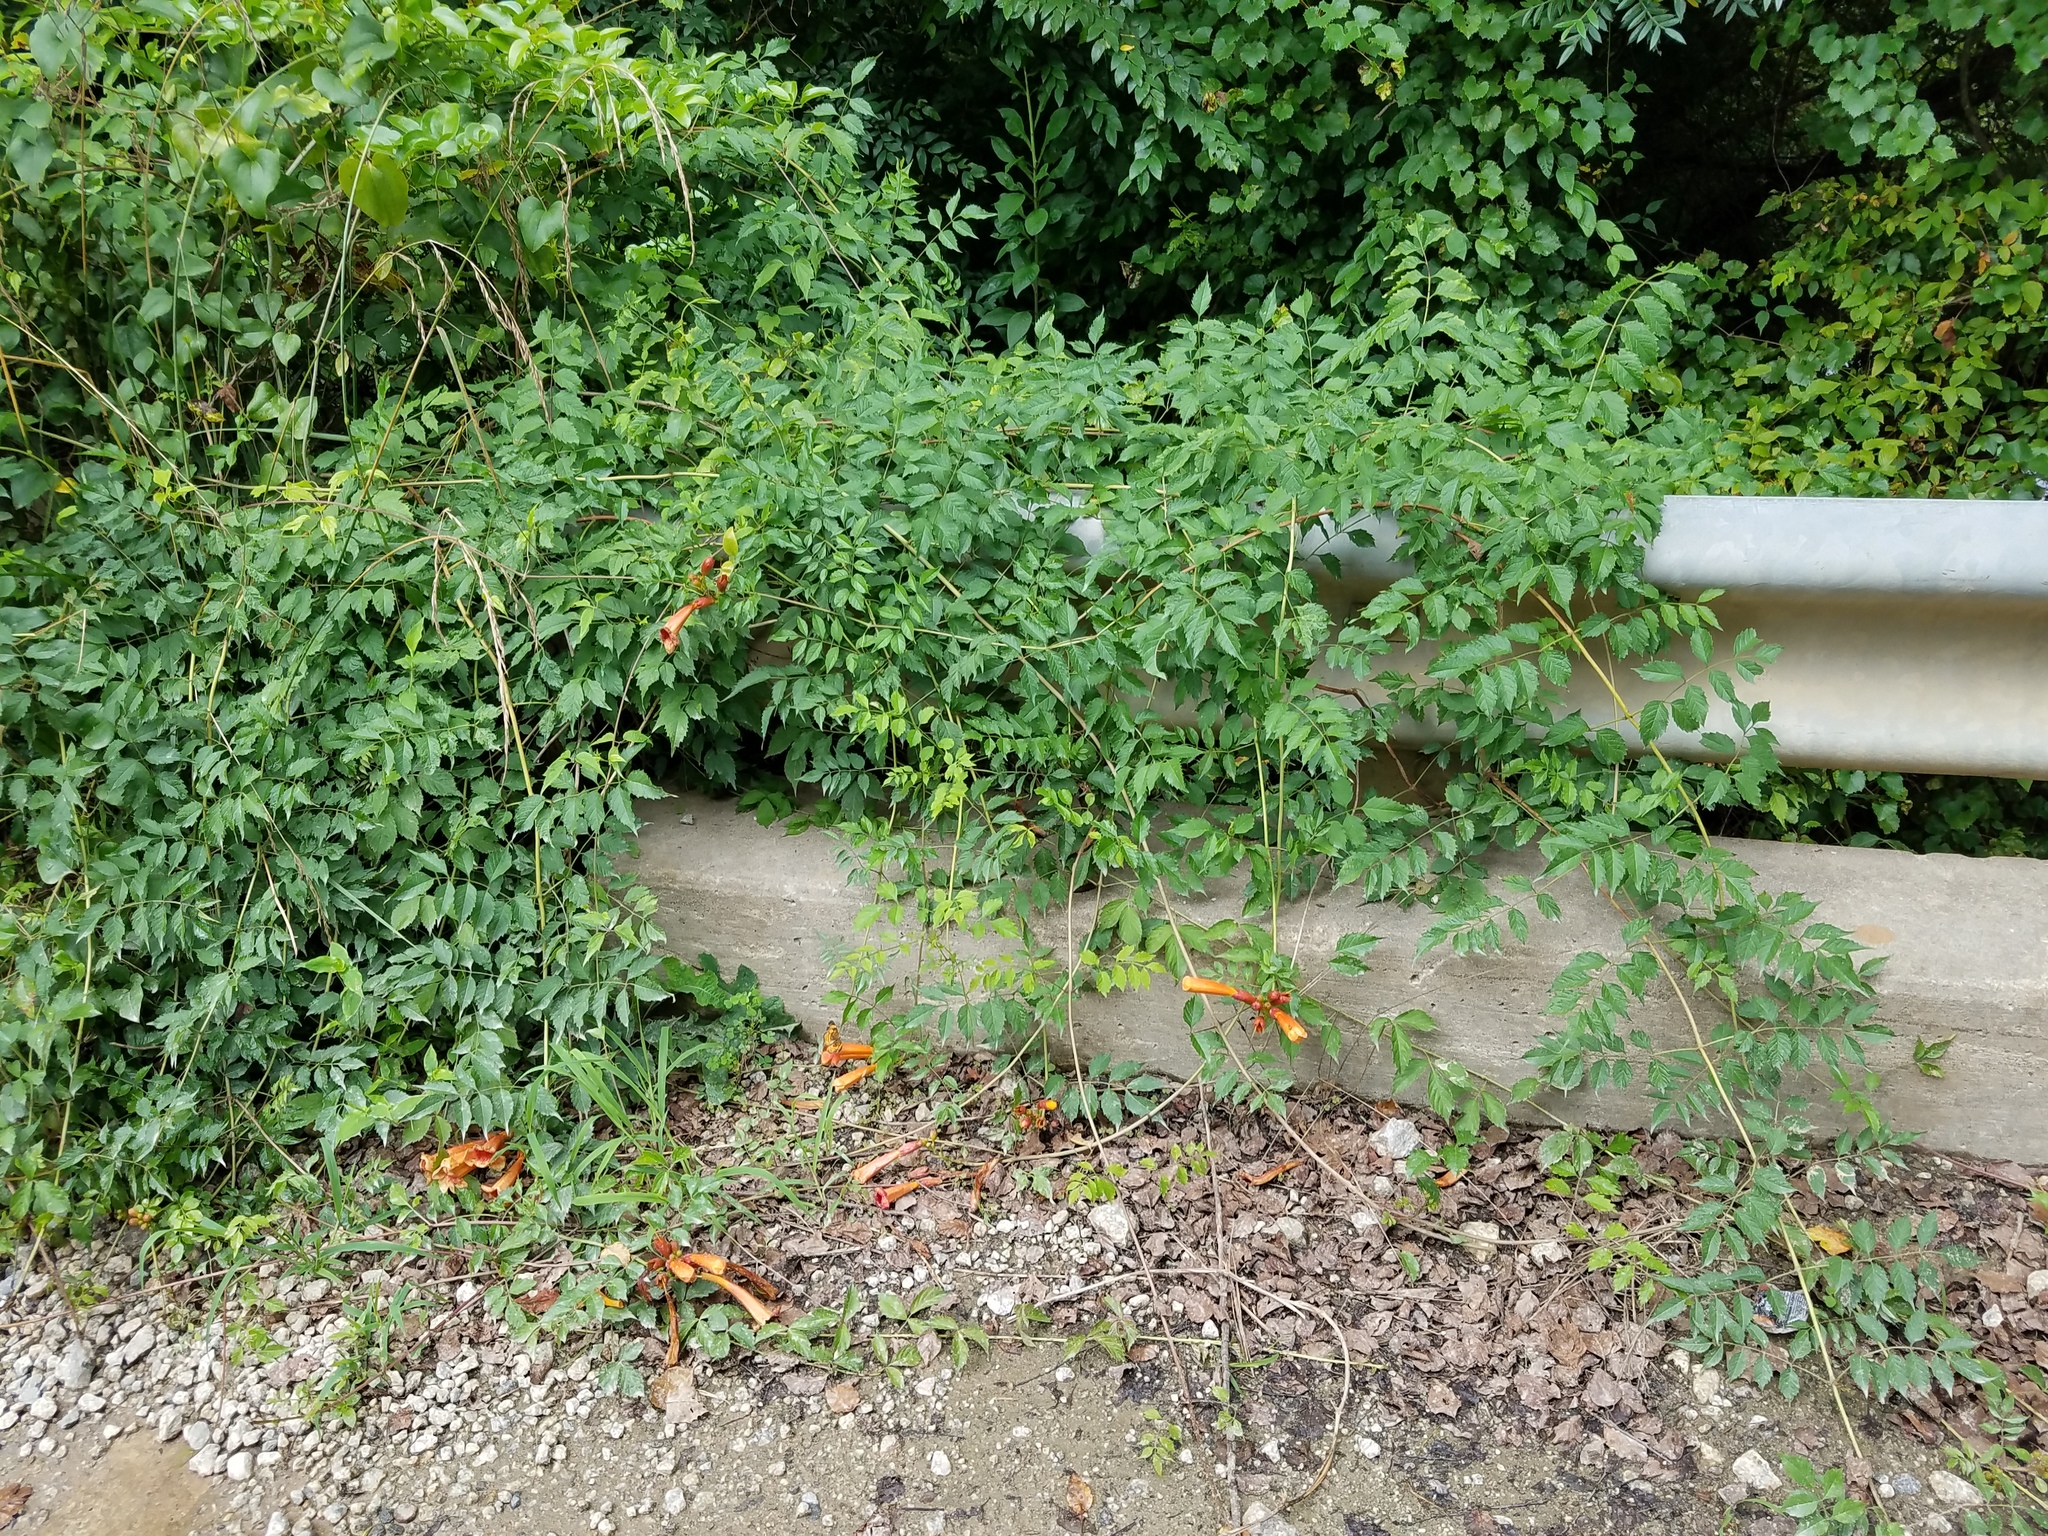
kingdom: Plantae
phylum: Tracheophyta
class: Magnoliopsida
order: Lamiales
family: Bignoniaceae
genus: Campsis
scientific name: Campsis radicans
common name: Trumpet-creeper
